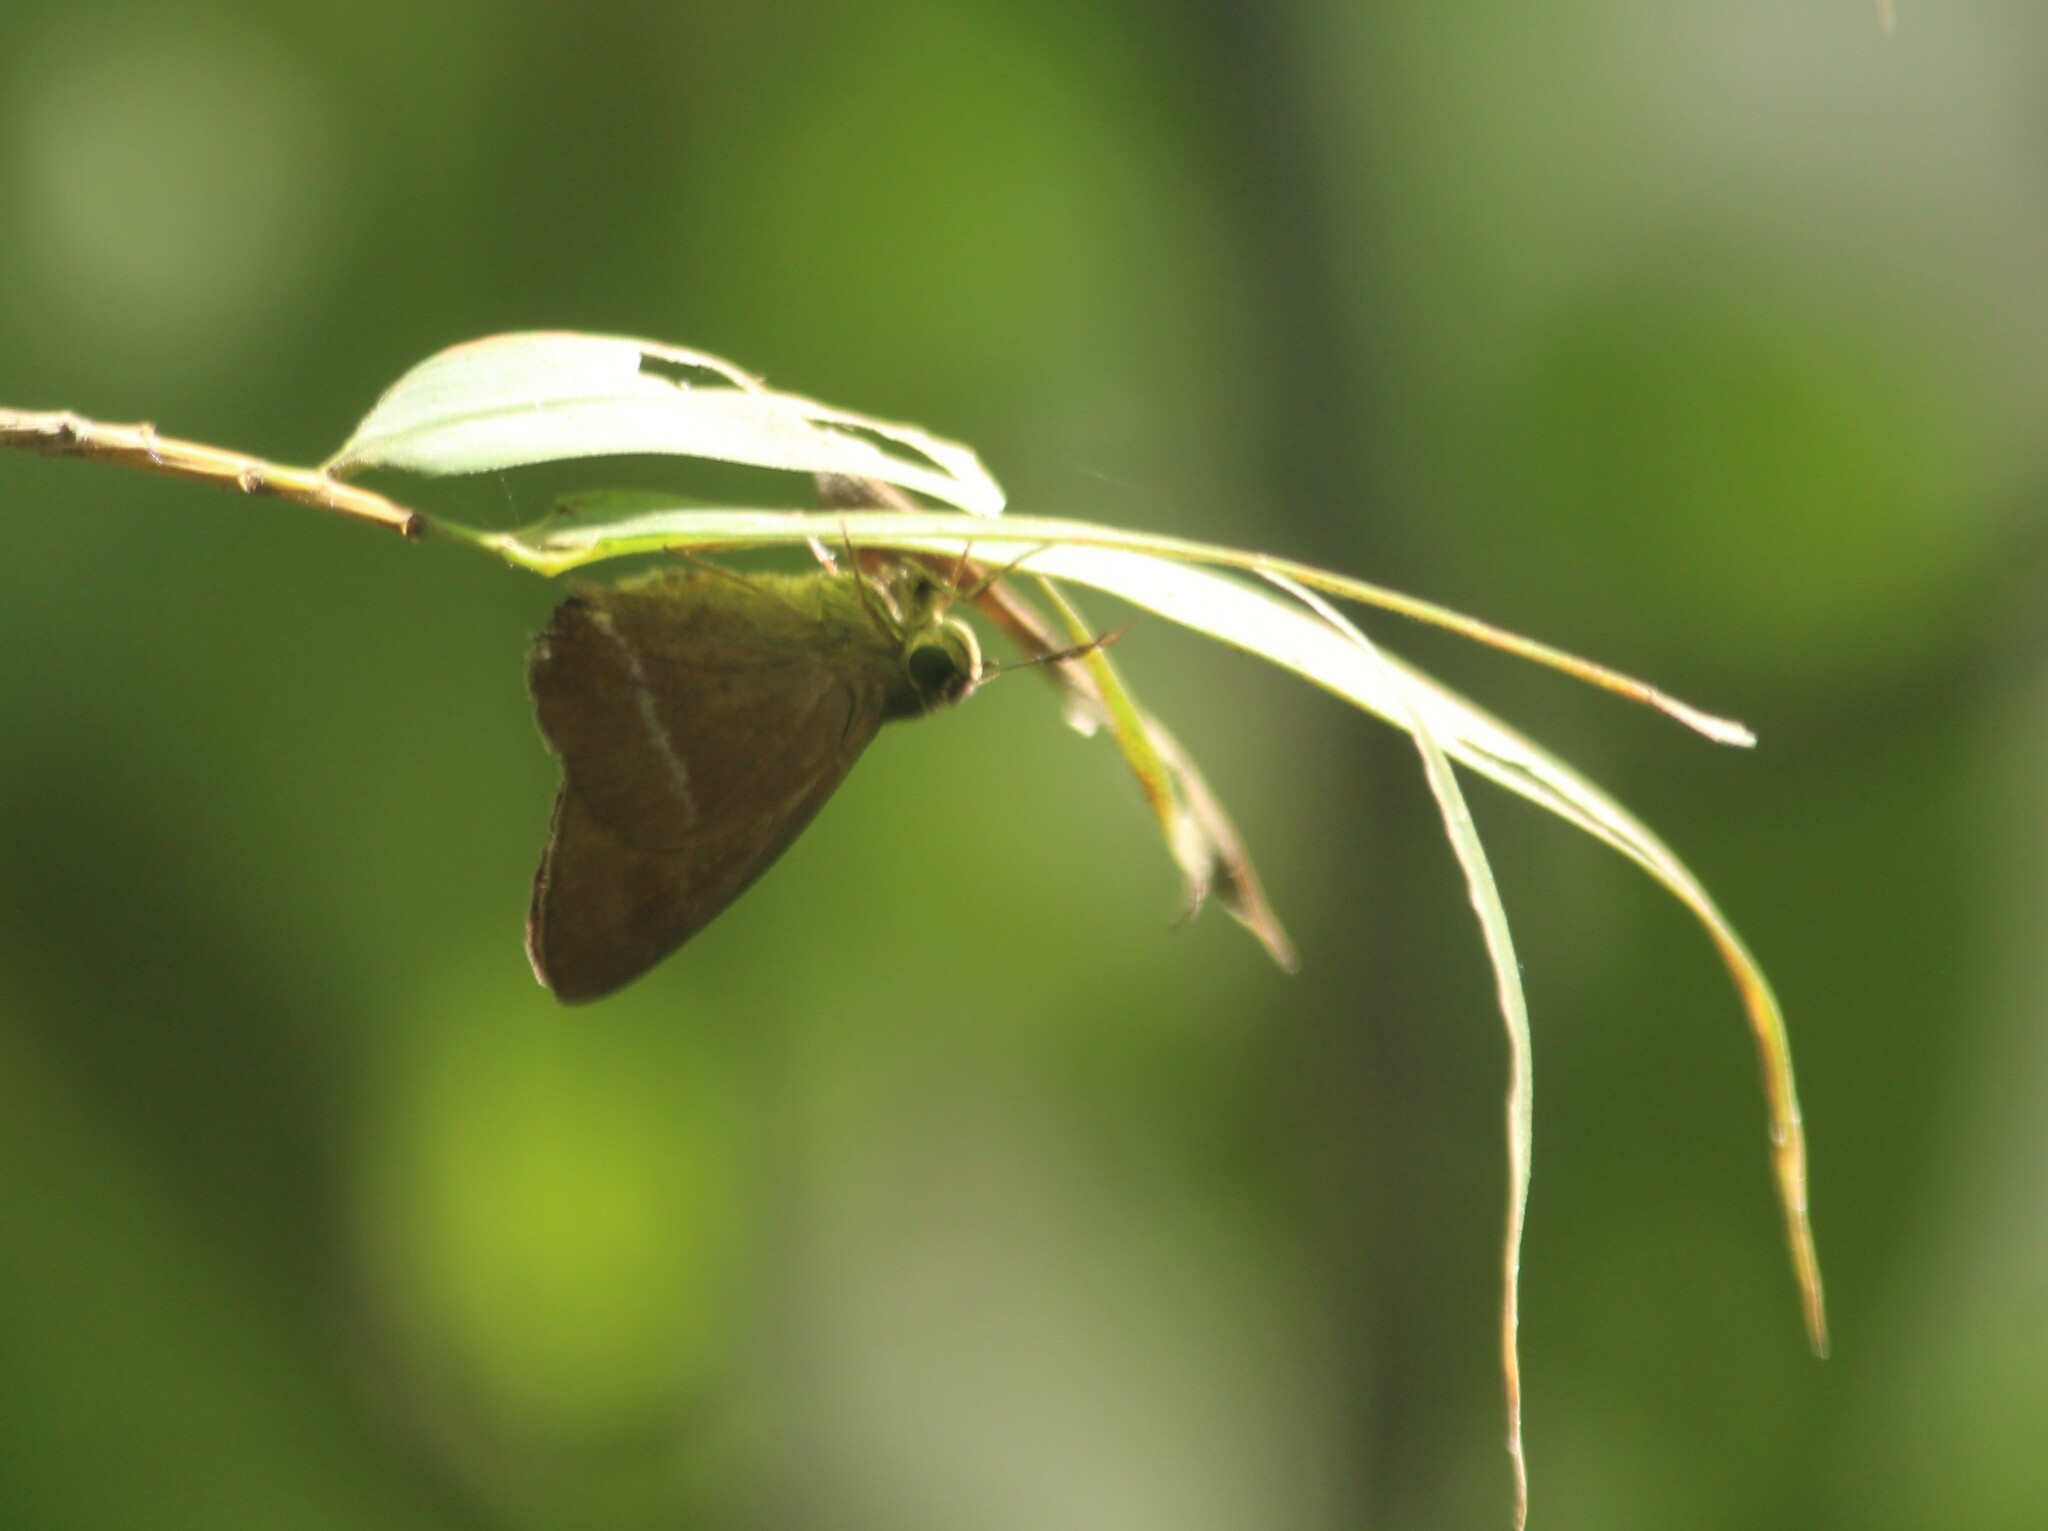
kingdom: Animalia
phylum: Arthropoda
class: Insecta
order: Lepidoptera
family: Hesperiidae
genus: Hasora
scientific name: Hasora chromus
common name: Common banded awl
